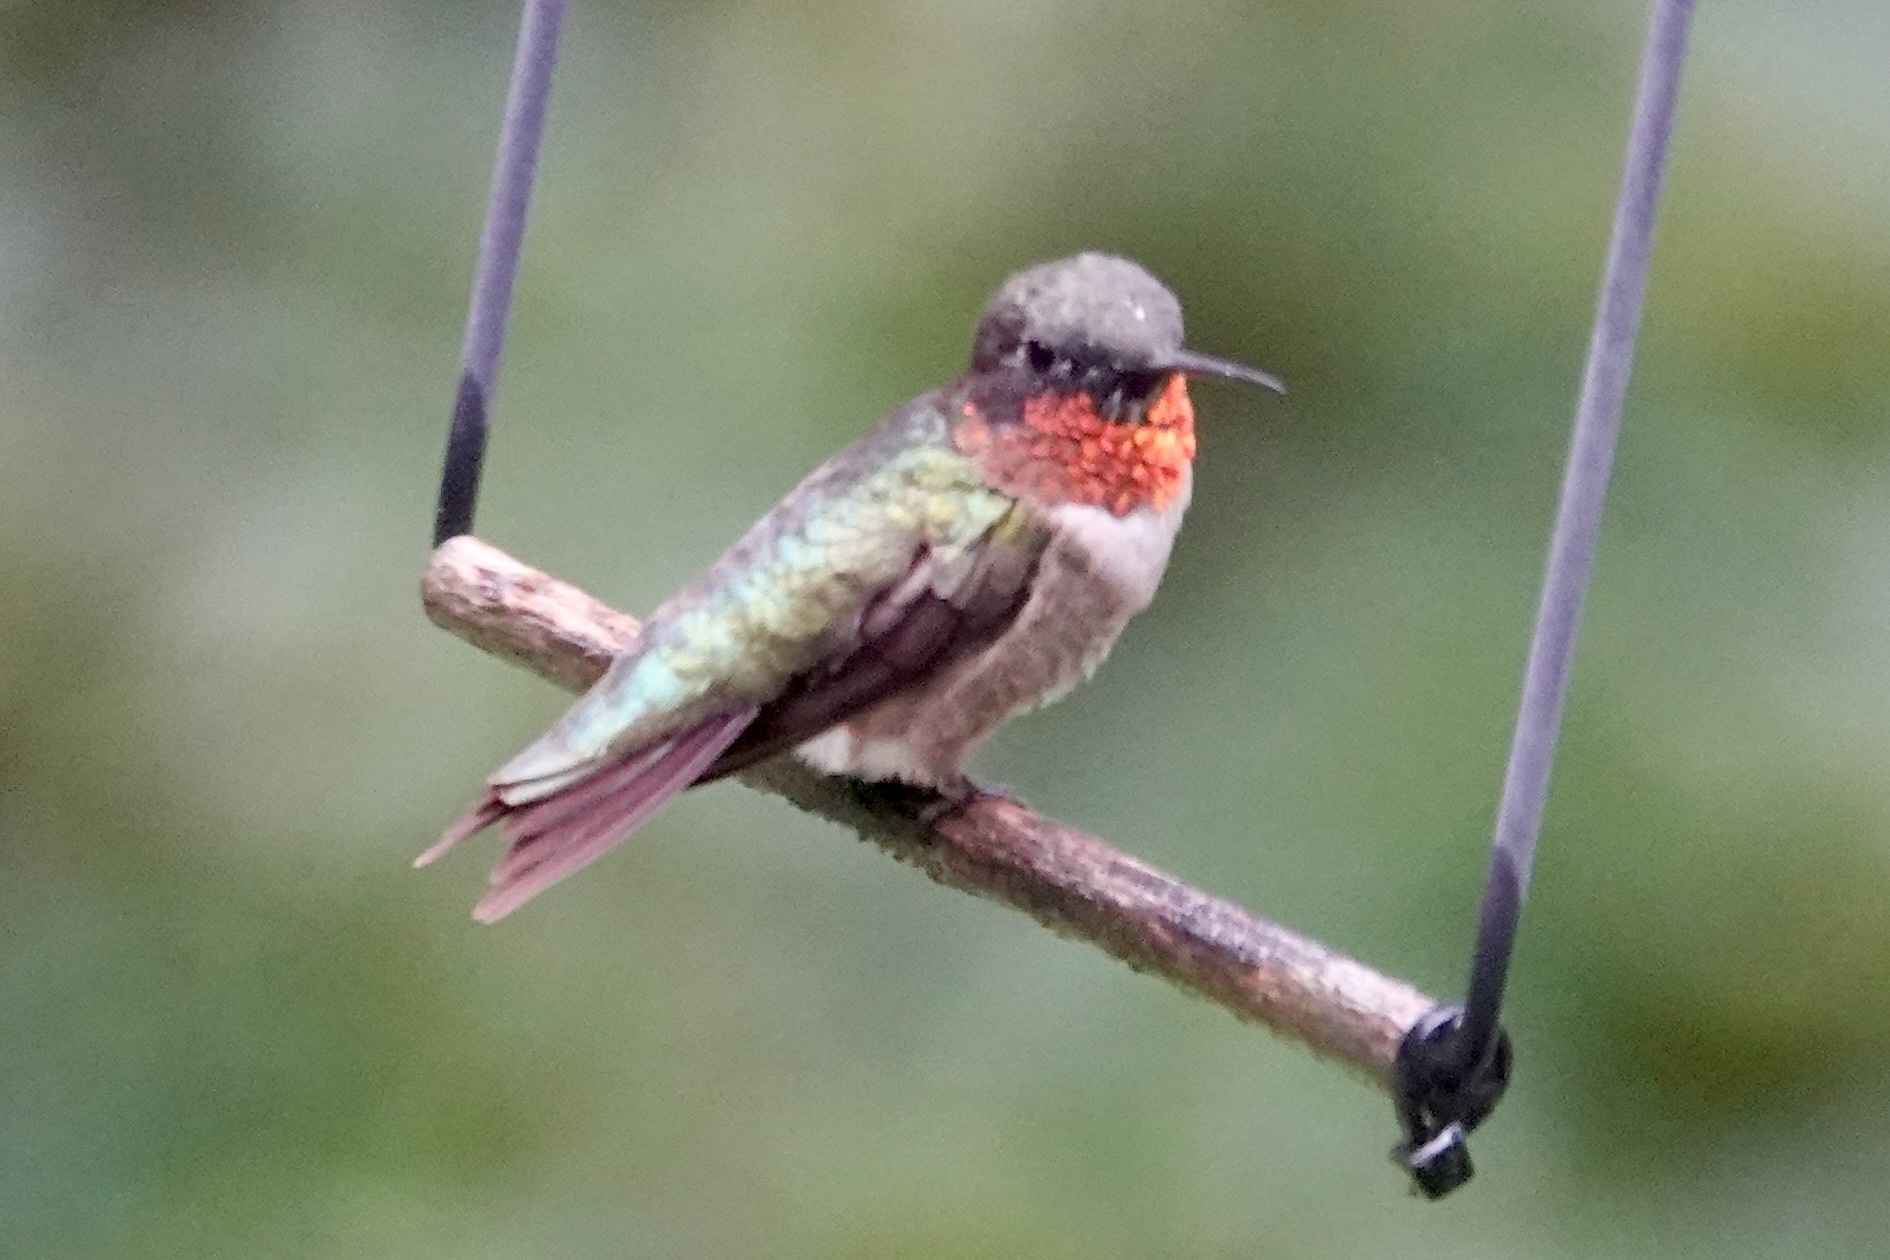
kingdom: Animalia
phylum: Chordata
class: Aves
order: Apodiformes
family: Trochilidae
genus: Archilochus
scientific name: Archilochus colubris
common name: Ruby-throated hummingbird
